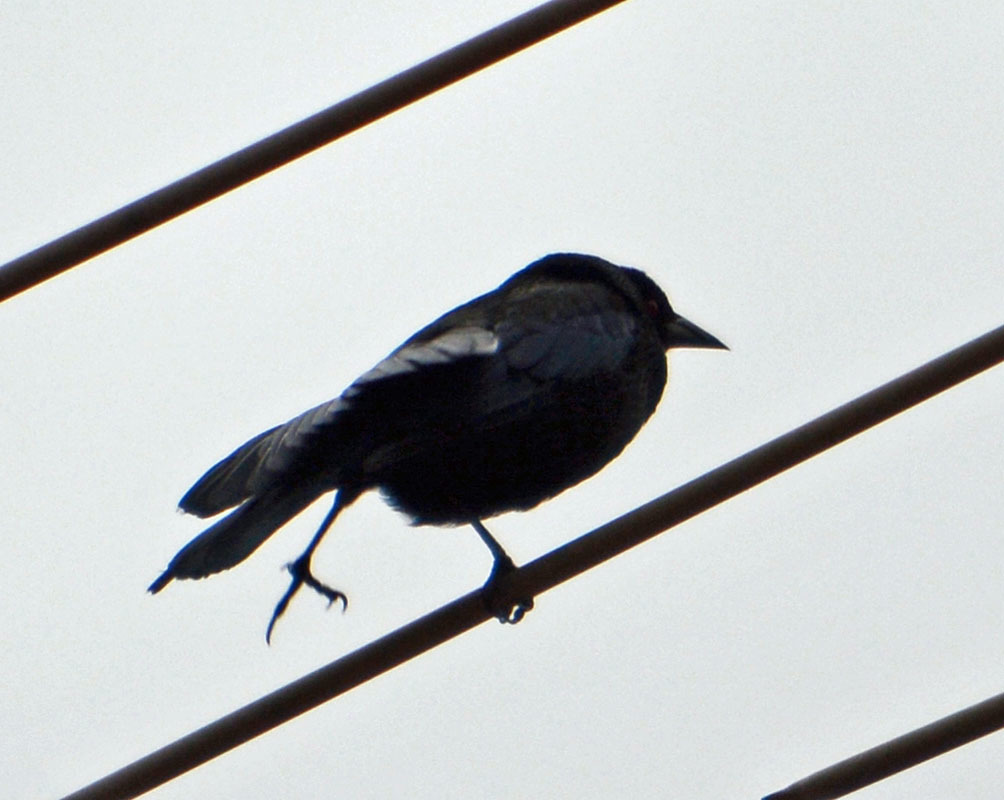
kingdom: Animalia
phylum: Chordata
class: Aves
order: Passeriformes
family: Icteridae
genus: Molothrus
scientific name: Molothrus aeneus
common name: Bronzed cowbird
